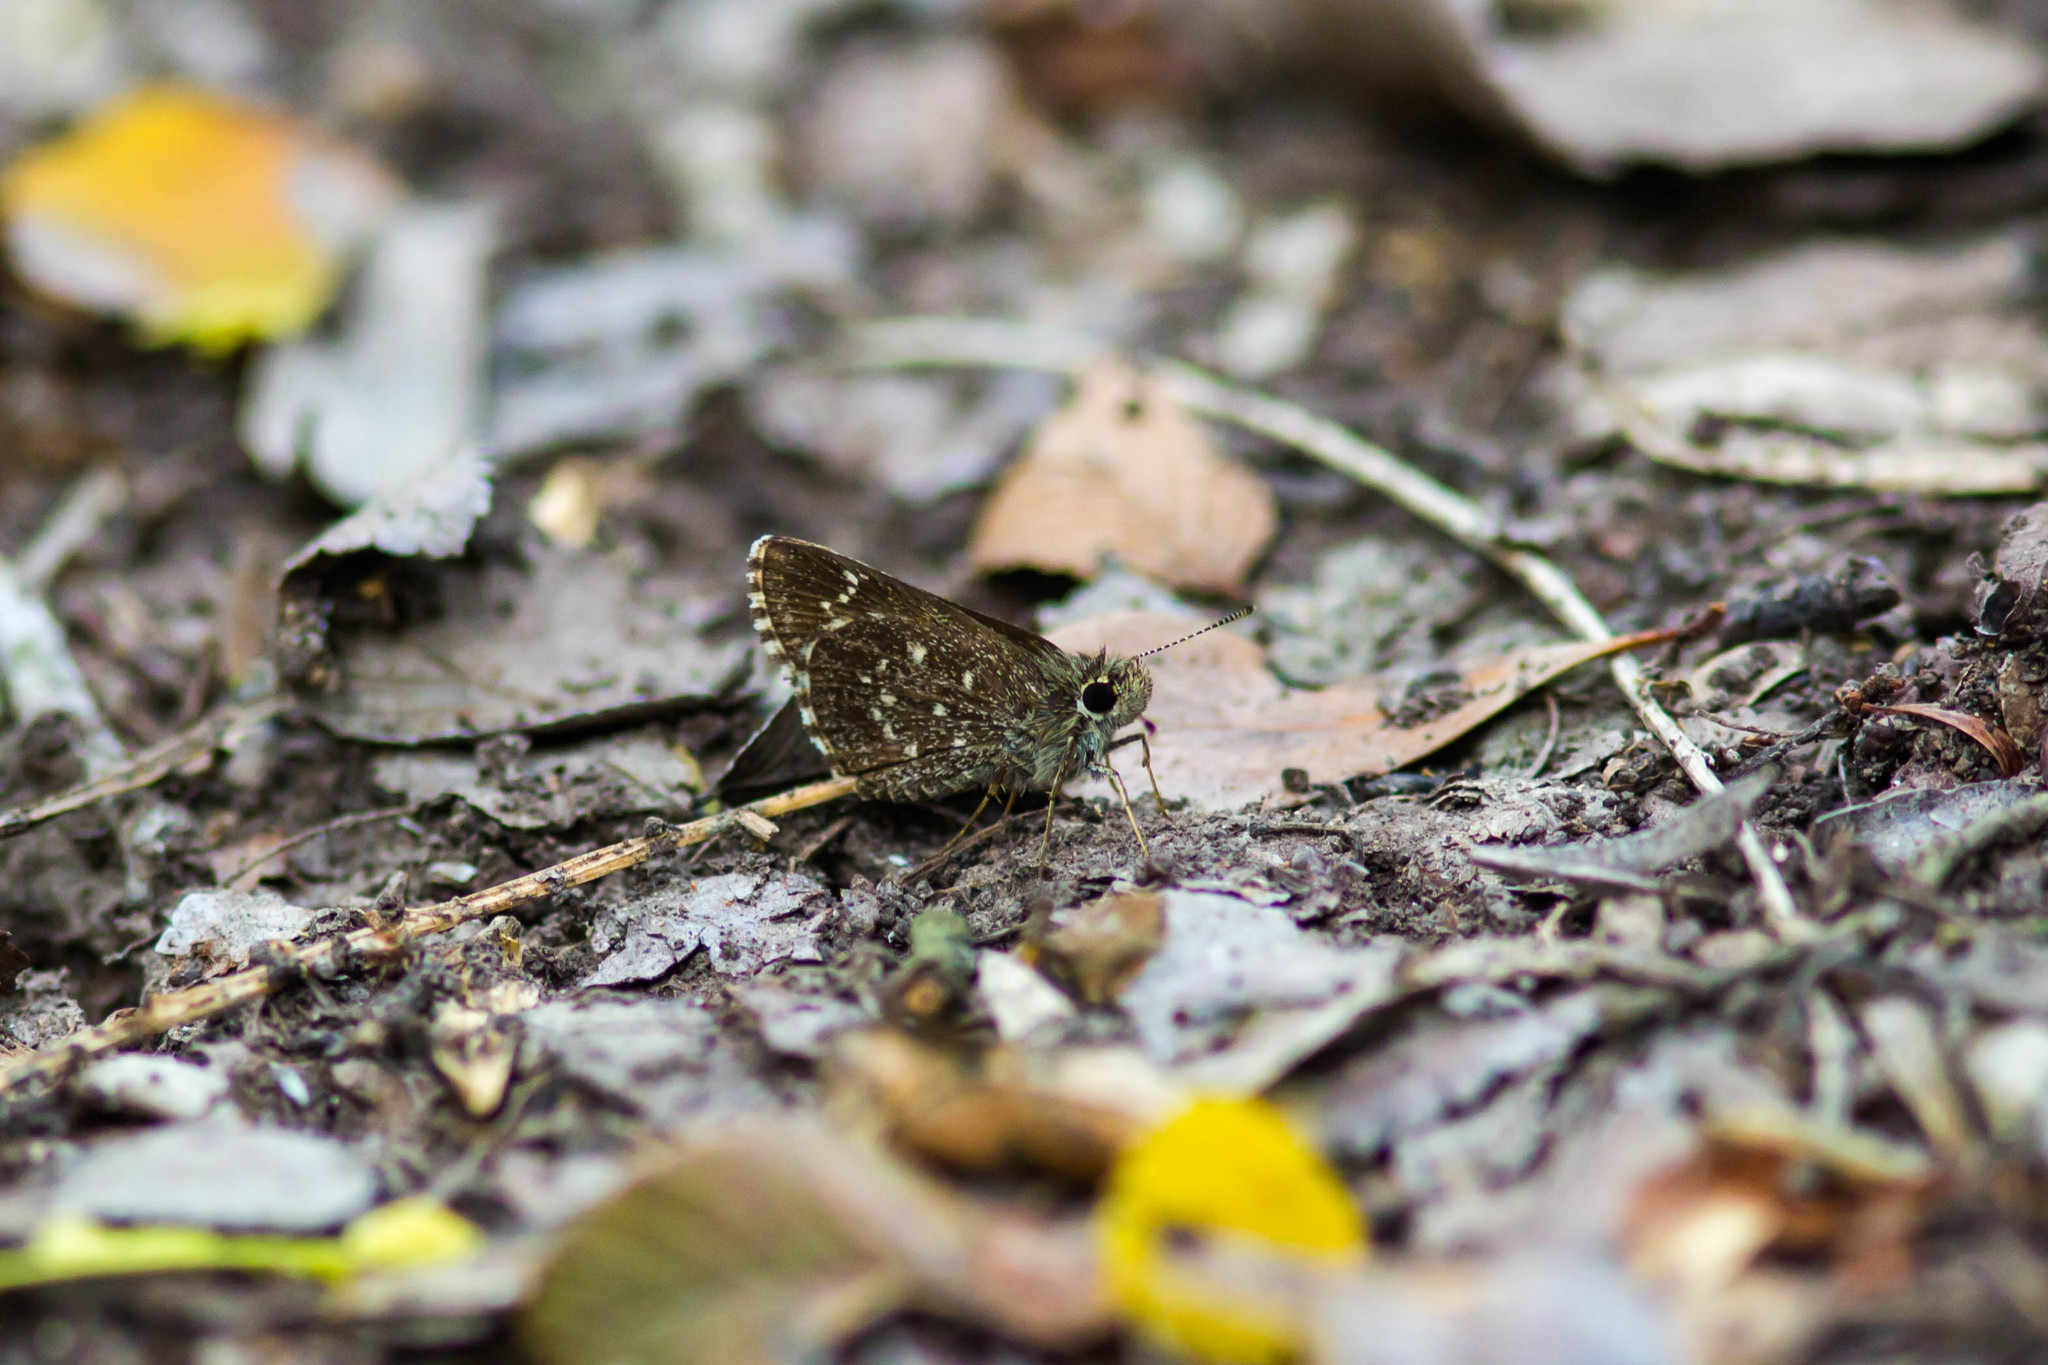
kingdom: Animalia
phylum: Arthropoda
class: Insecta
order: Lepidoptera
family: Hesperiidae
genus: Mastor
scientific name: Mastor celia
